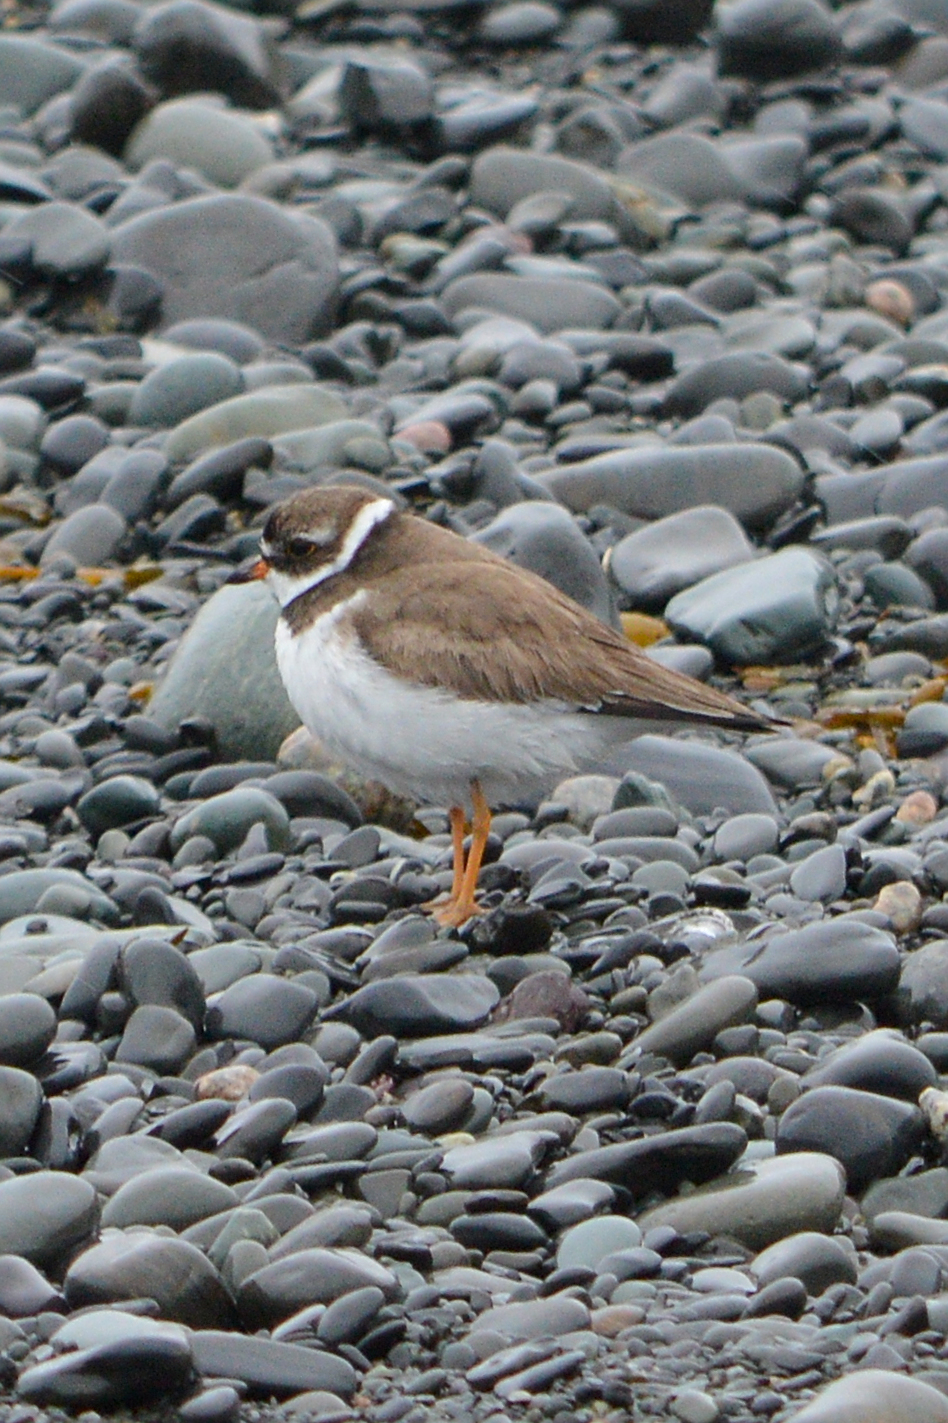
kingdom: Animalia
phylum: Chordata
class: Aves
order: Charadriiformes
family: Charadriidae
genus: Charadrius
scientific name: Charadrius semipalmatus
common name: Semipalmated plover
